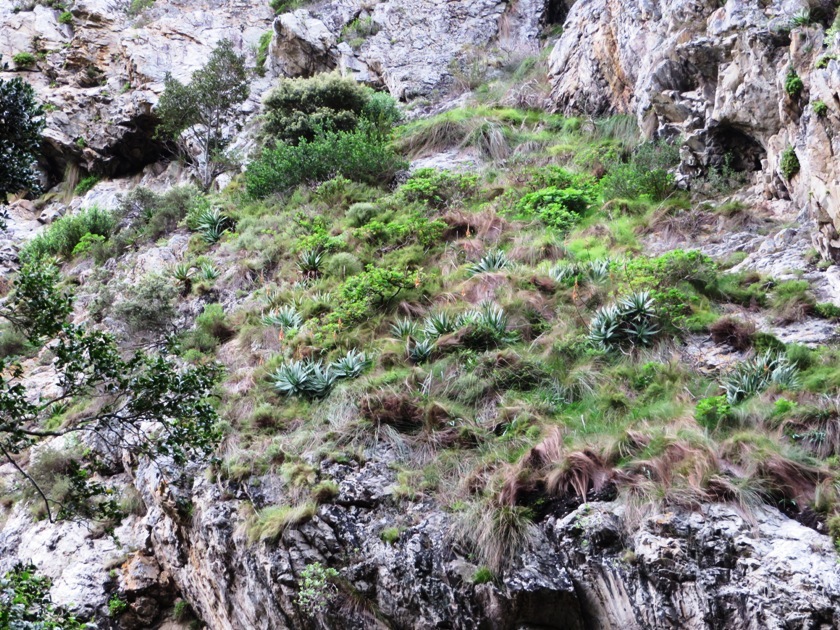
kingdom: Plantae
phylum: Tracheophyta
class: Liliopsida
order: Asparagales
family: Asphodelaceae
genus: Aloe
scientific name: Aloe succotrina
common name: Bombay aloe
